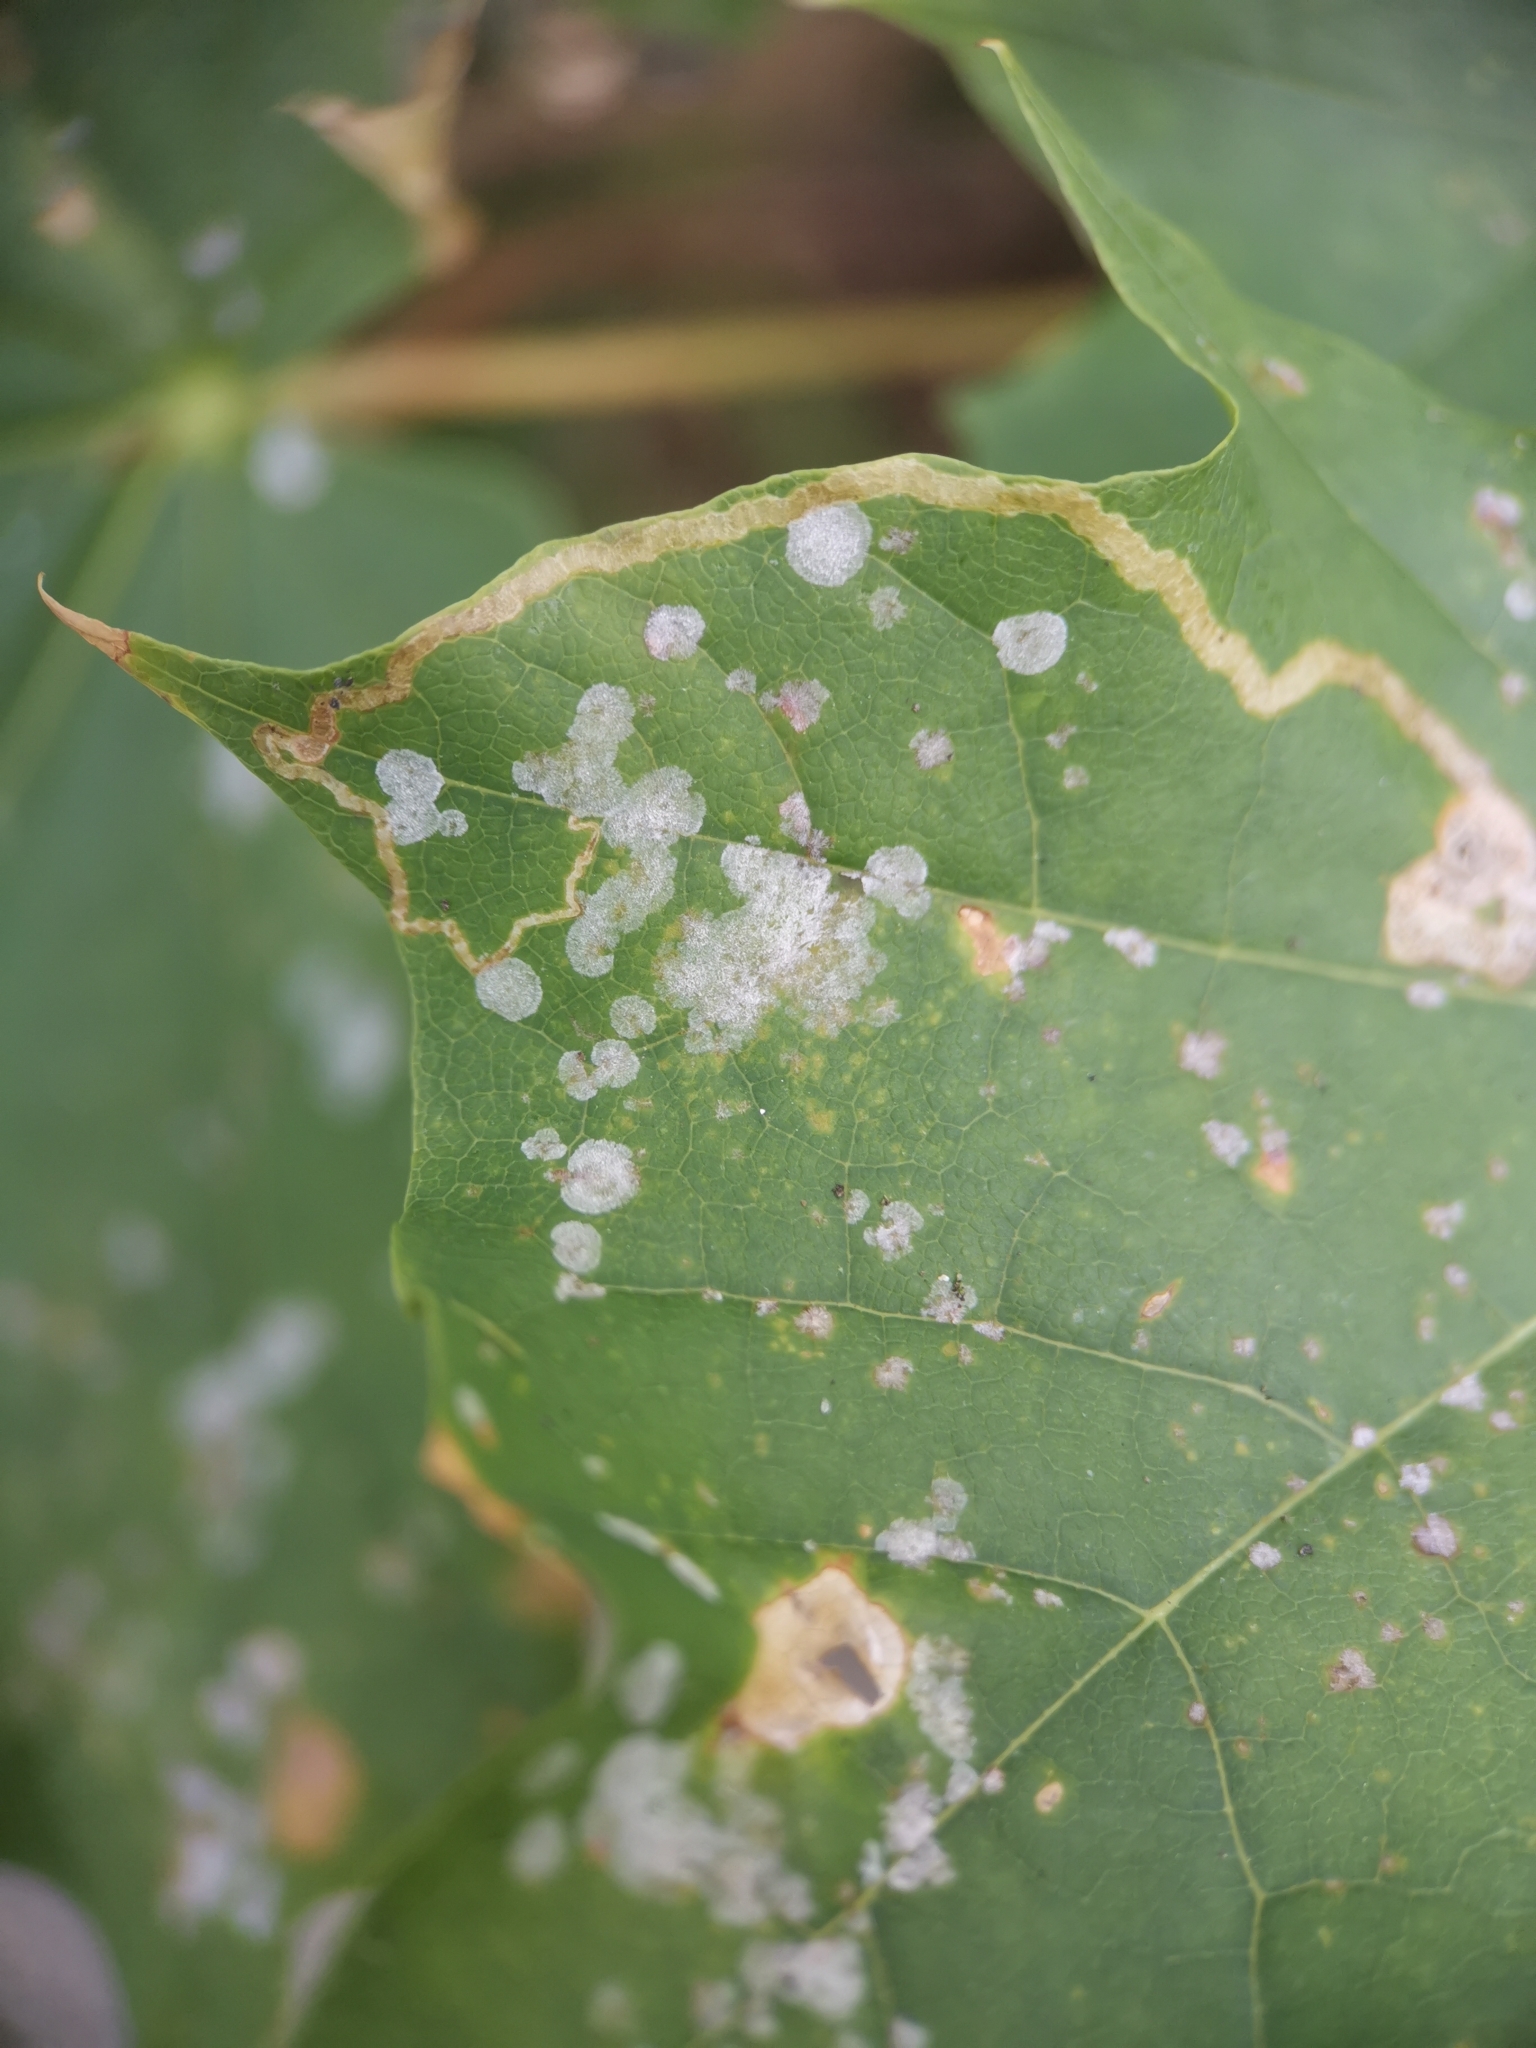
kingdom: Fungi
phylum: Ascomycota
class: Leotiomycetes
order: Helotiales
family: Erysiphaceae
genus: Sawadaea
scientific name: Sawadaea tulasnei
